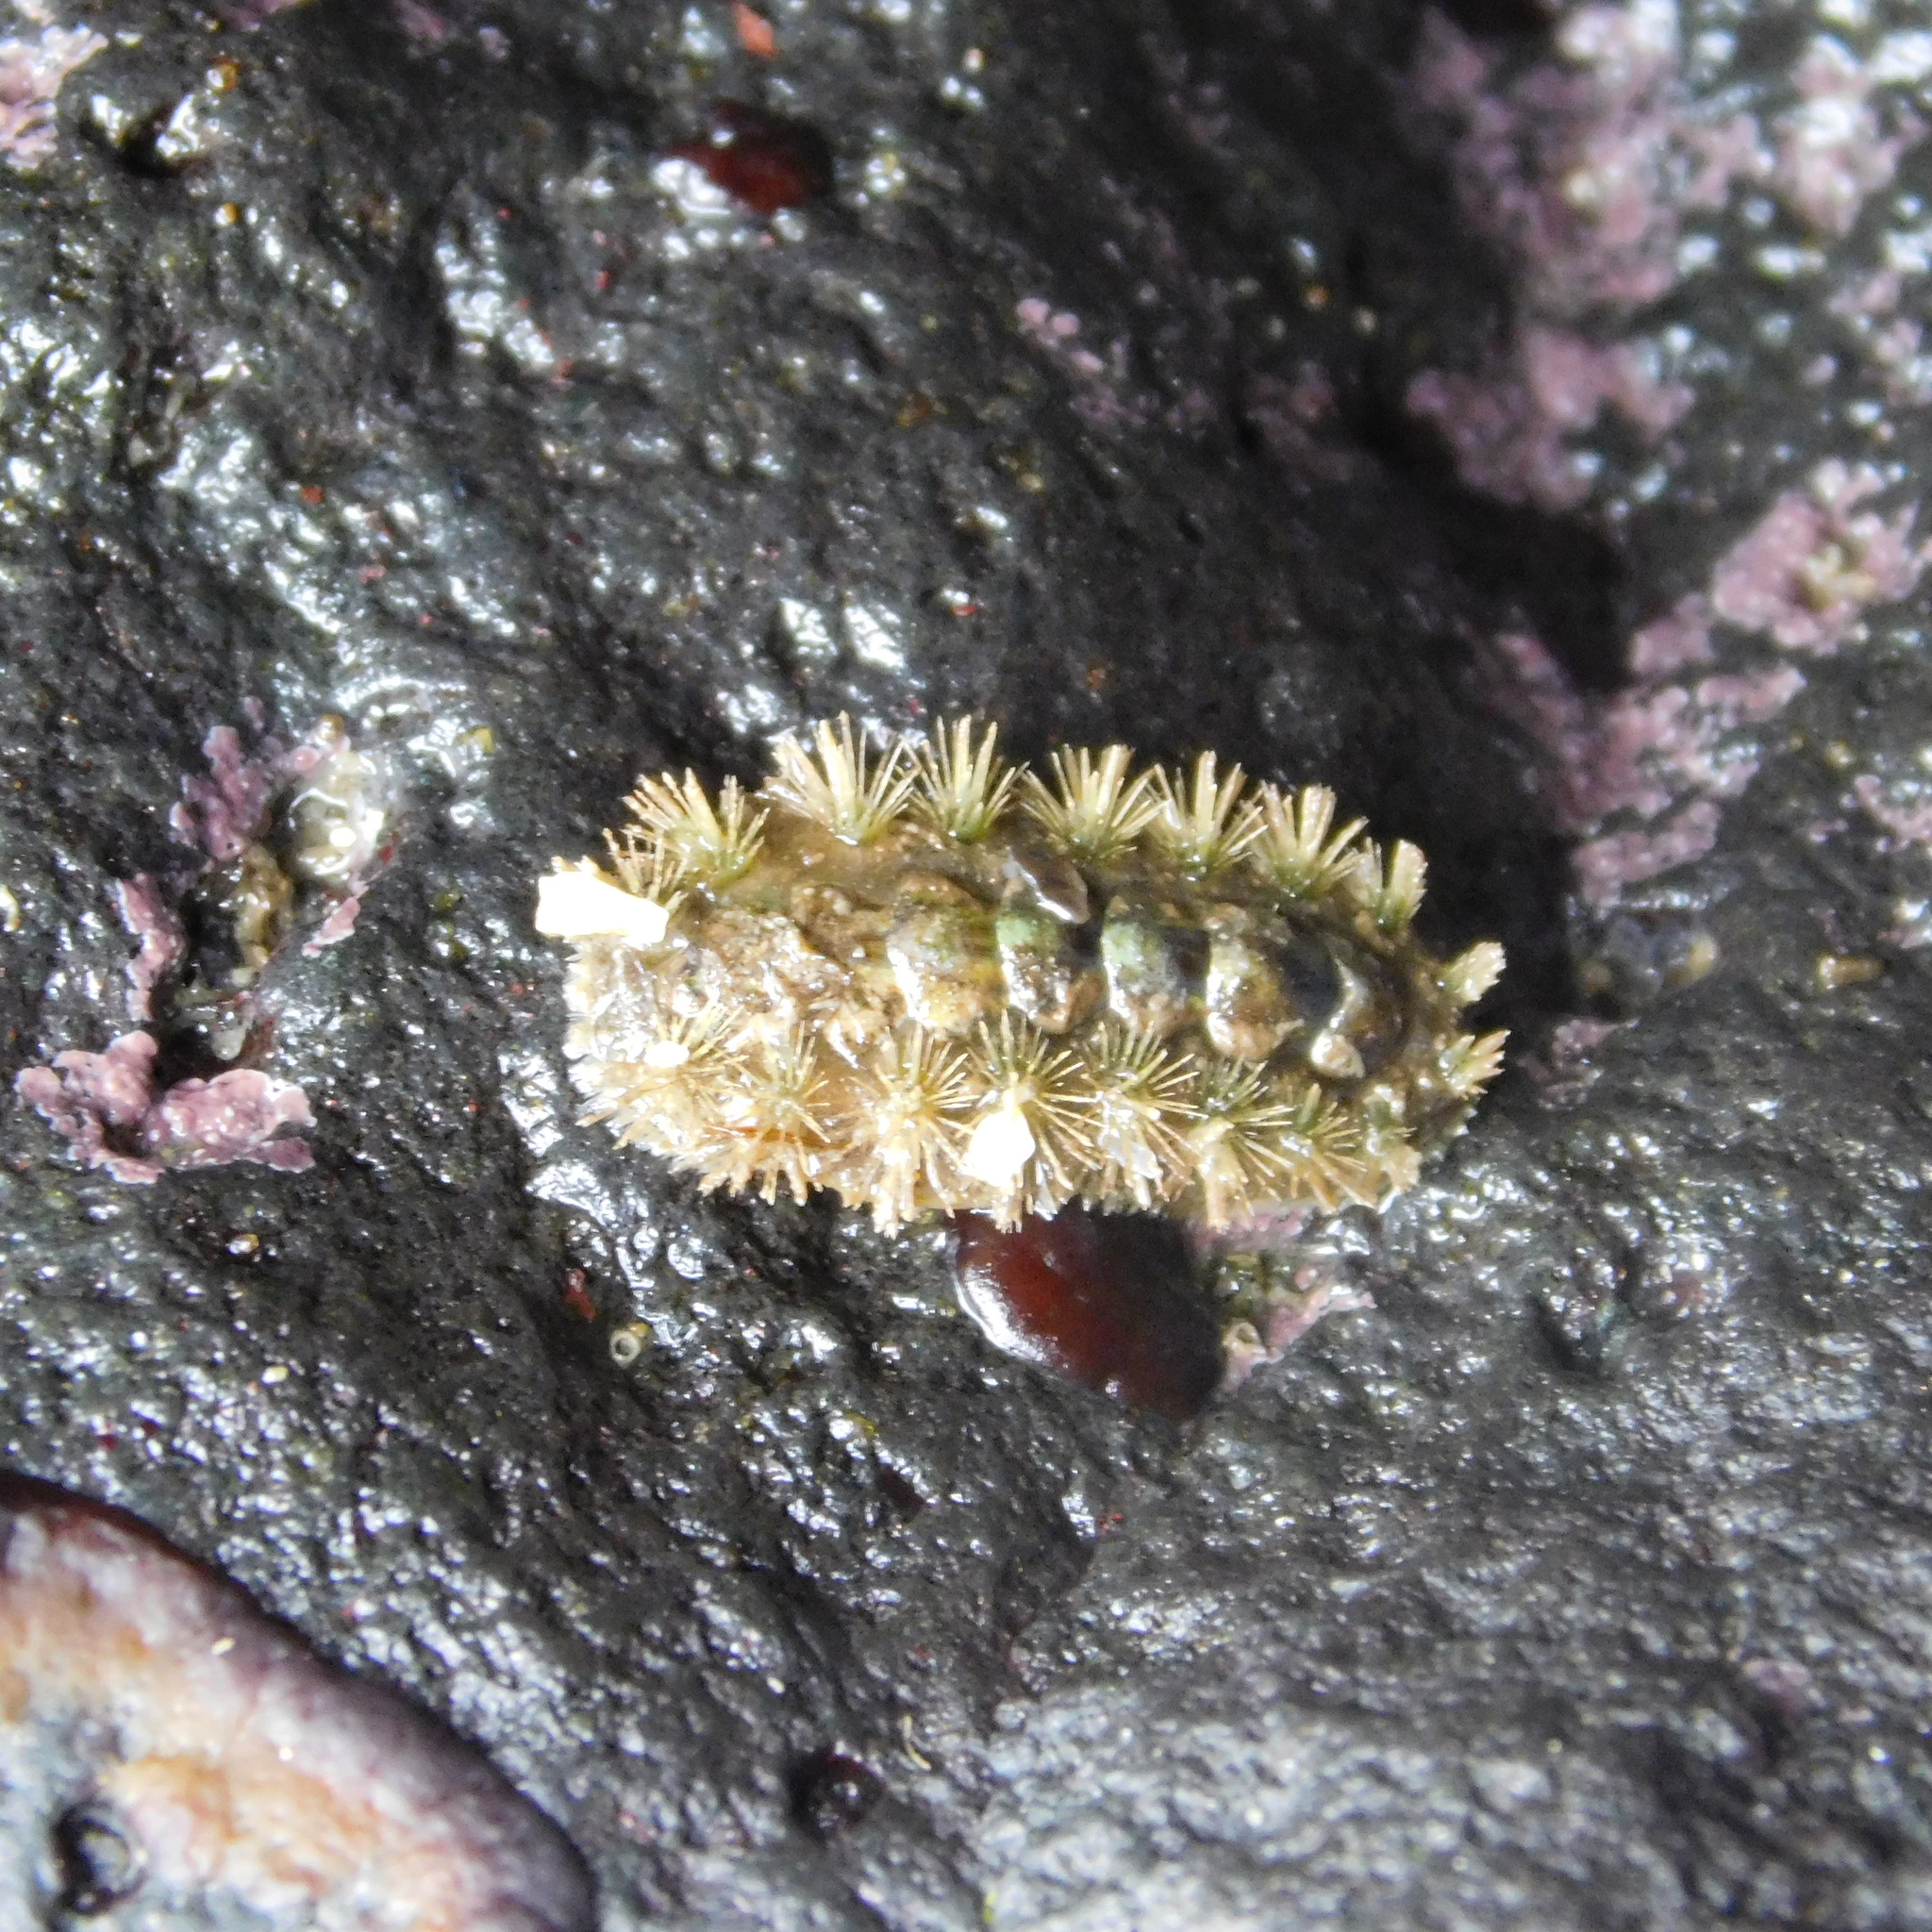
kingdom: Animalia
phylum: Mollusca
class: Polyplacophora
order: Chitonida
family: Acanthochitonidae
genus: Acanthochitona
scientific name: Acanthochitona zelandica
